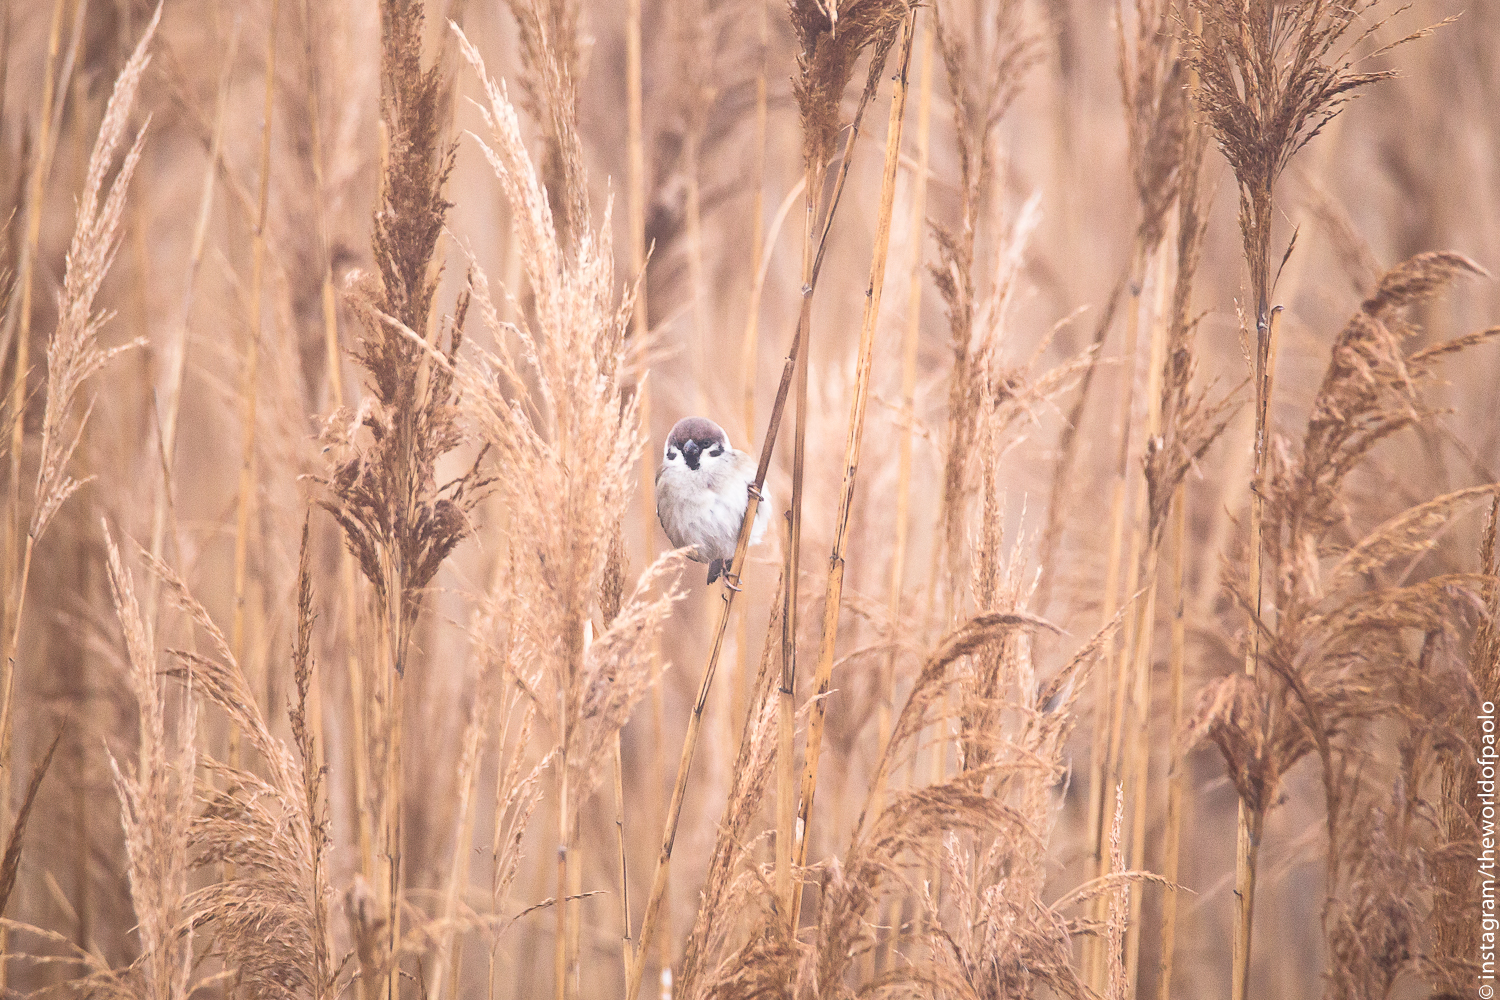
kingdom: Animalia
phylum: Chordata
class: Aves
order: Passeriformes
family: Passeridae
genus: Passer
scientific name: Passer montanus
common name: Eurasian tree sparrow
